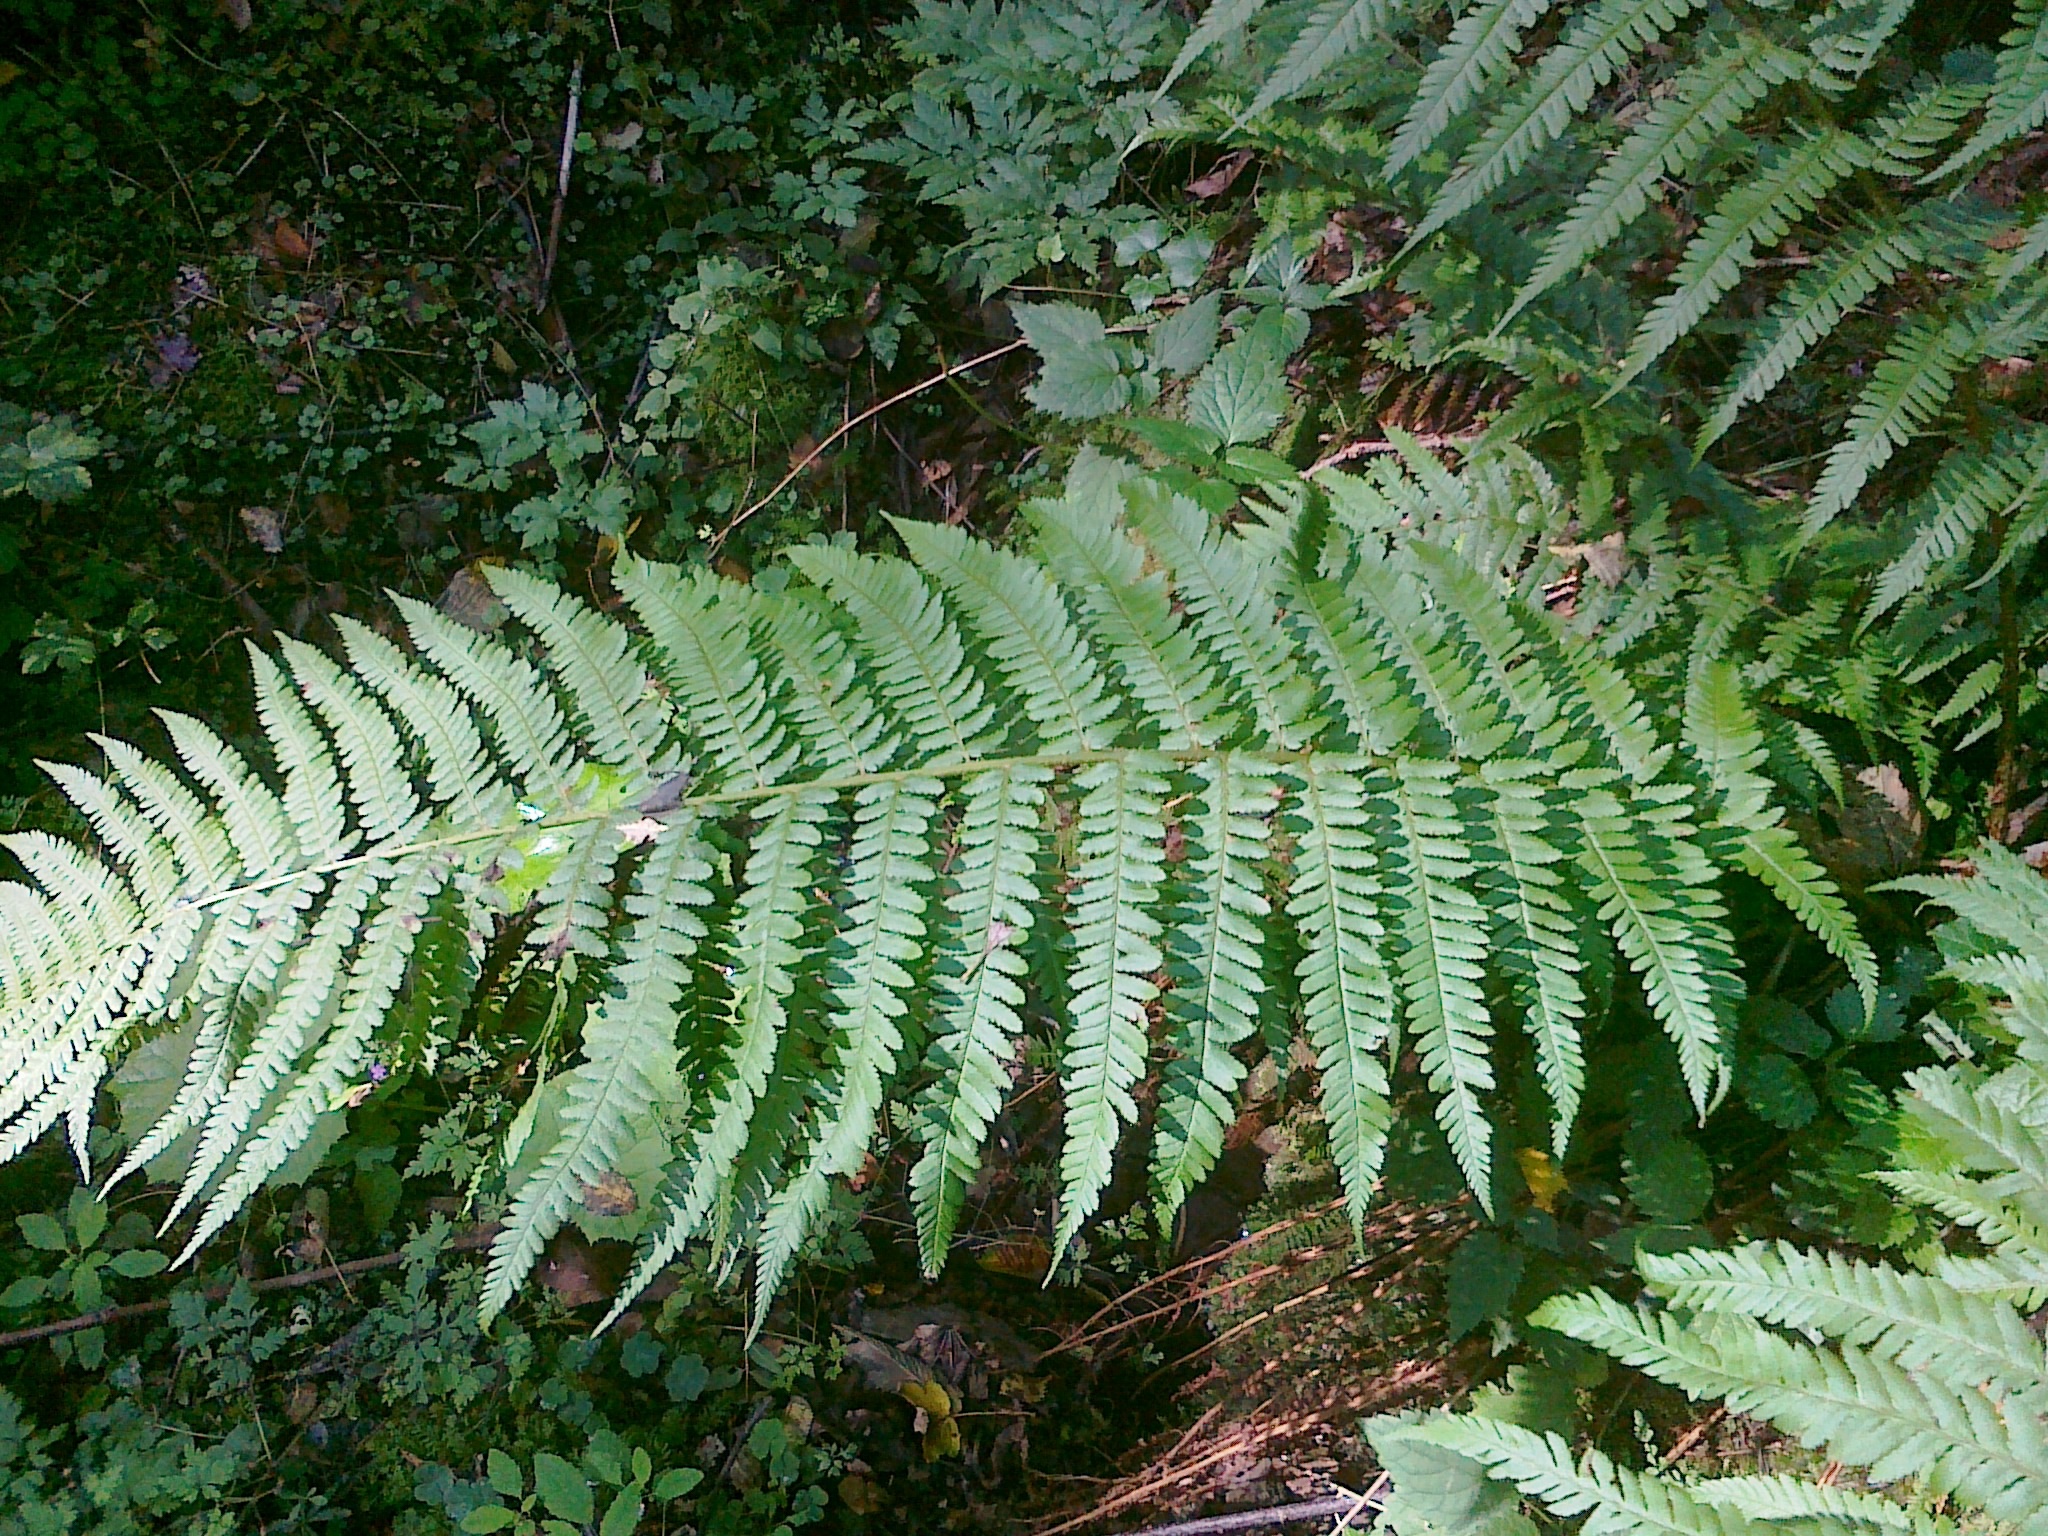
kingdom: Plantae
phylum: Tracheophyta
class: Polypodiopsida
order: Polypodiales
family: Dryopteridaceae
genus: Dryopteris
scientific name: Dryopteris filix-mas
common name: Male fern
